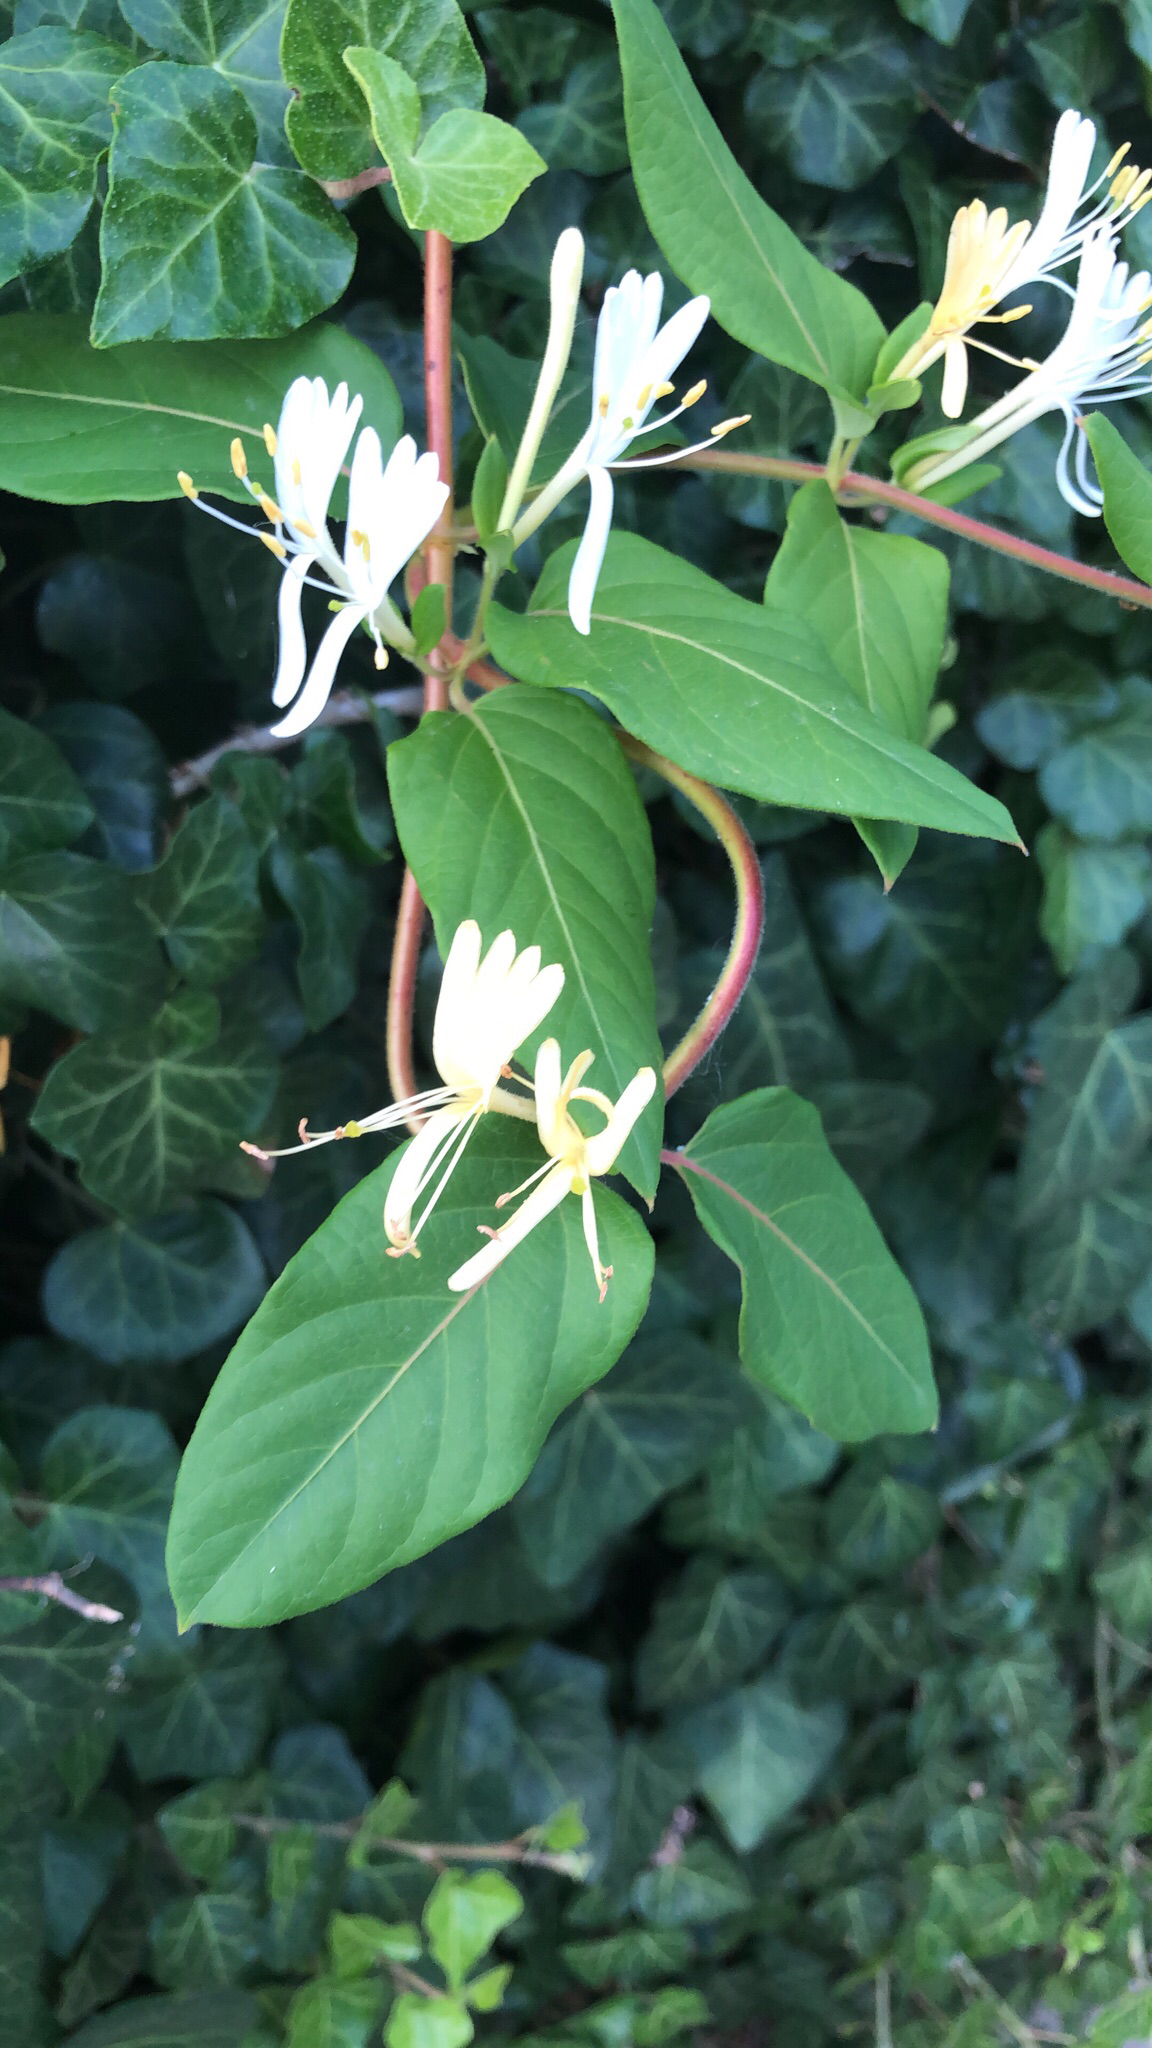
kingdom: Plantae
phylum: Tracheophyta
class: Magnoliopsida
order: Dipsacales
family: Caprifoliaceae
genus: Lonicera
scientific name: Lonicera japonica
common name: Japanese honeysuckle
